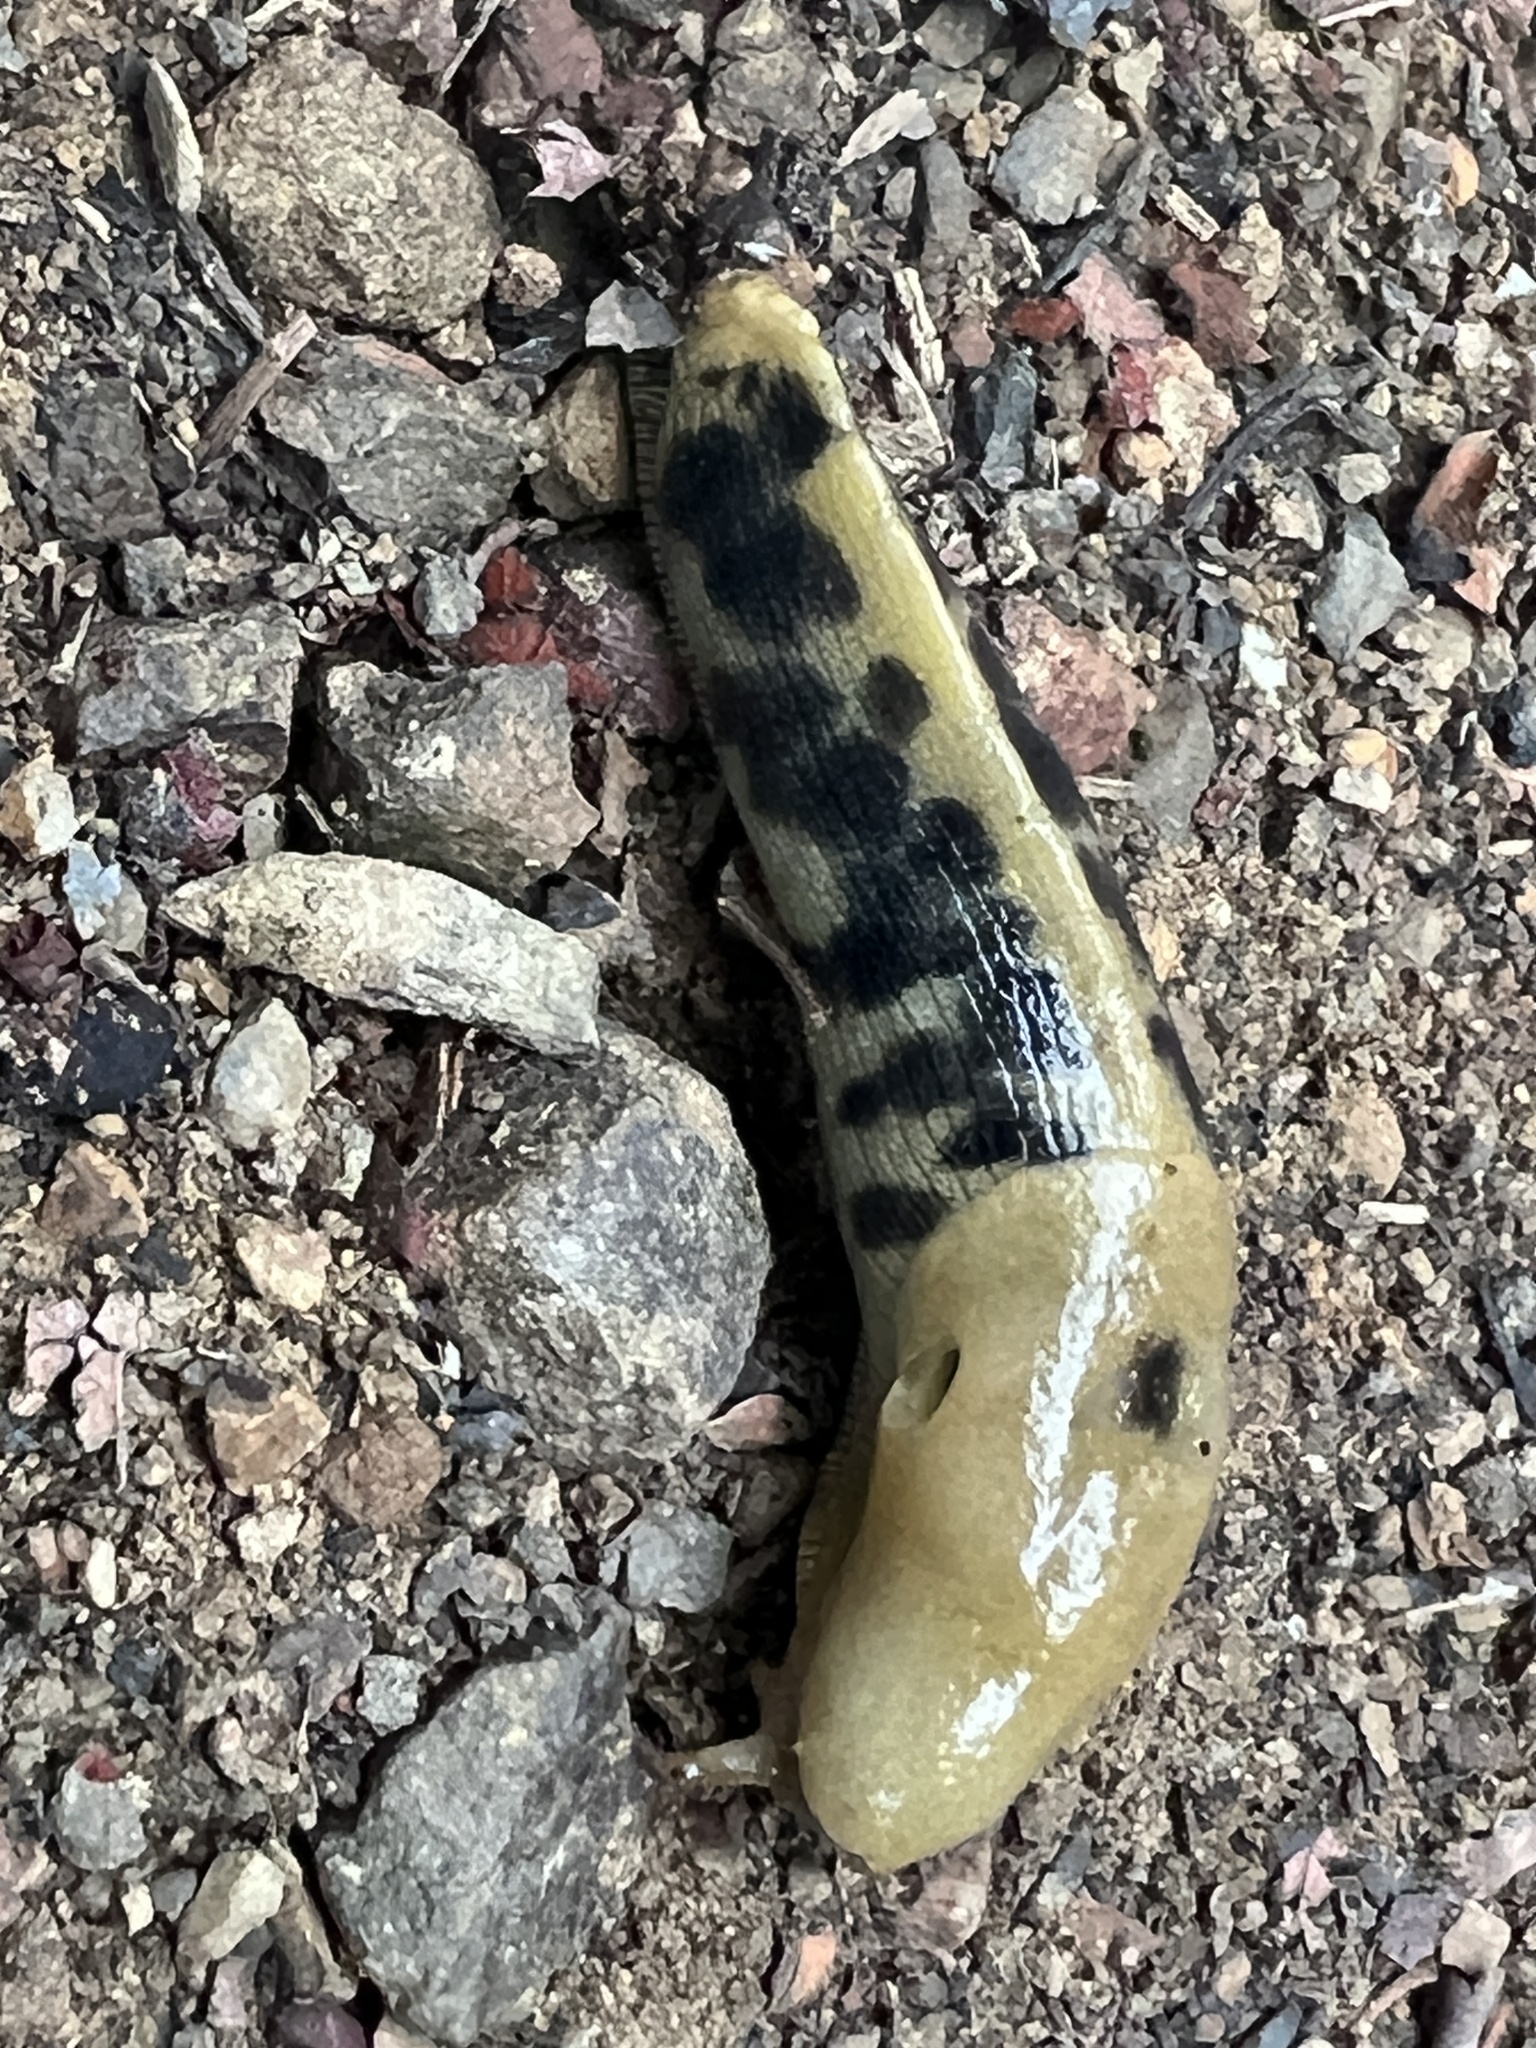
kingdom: Animalia
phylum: Mollusca
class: Gastropoda
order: Stylommatophora
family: Ariolimacidae
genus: Ariolimax
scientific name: Ariolimax buttoni
